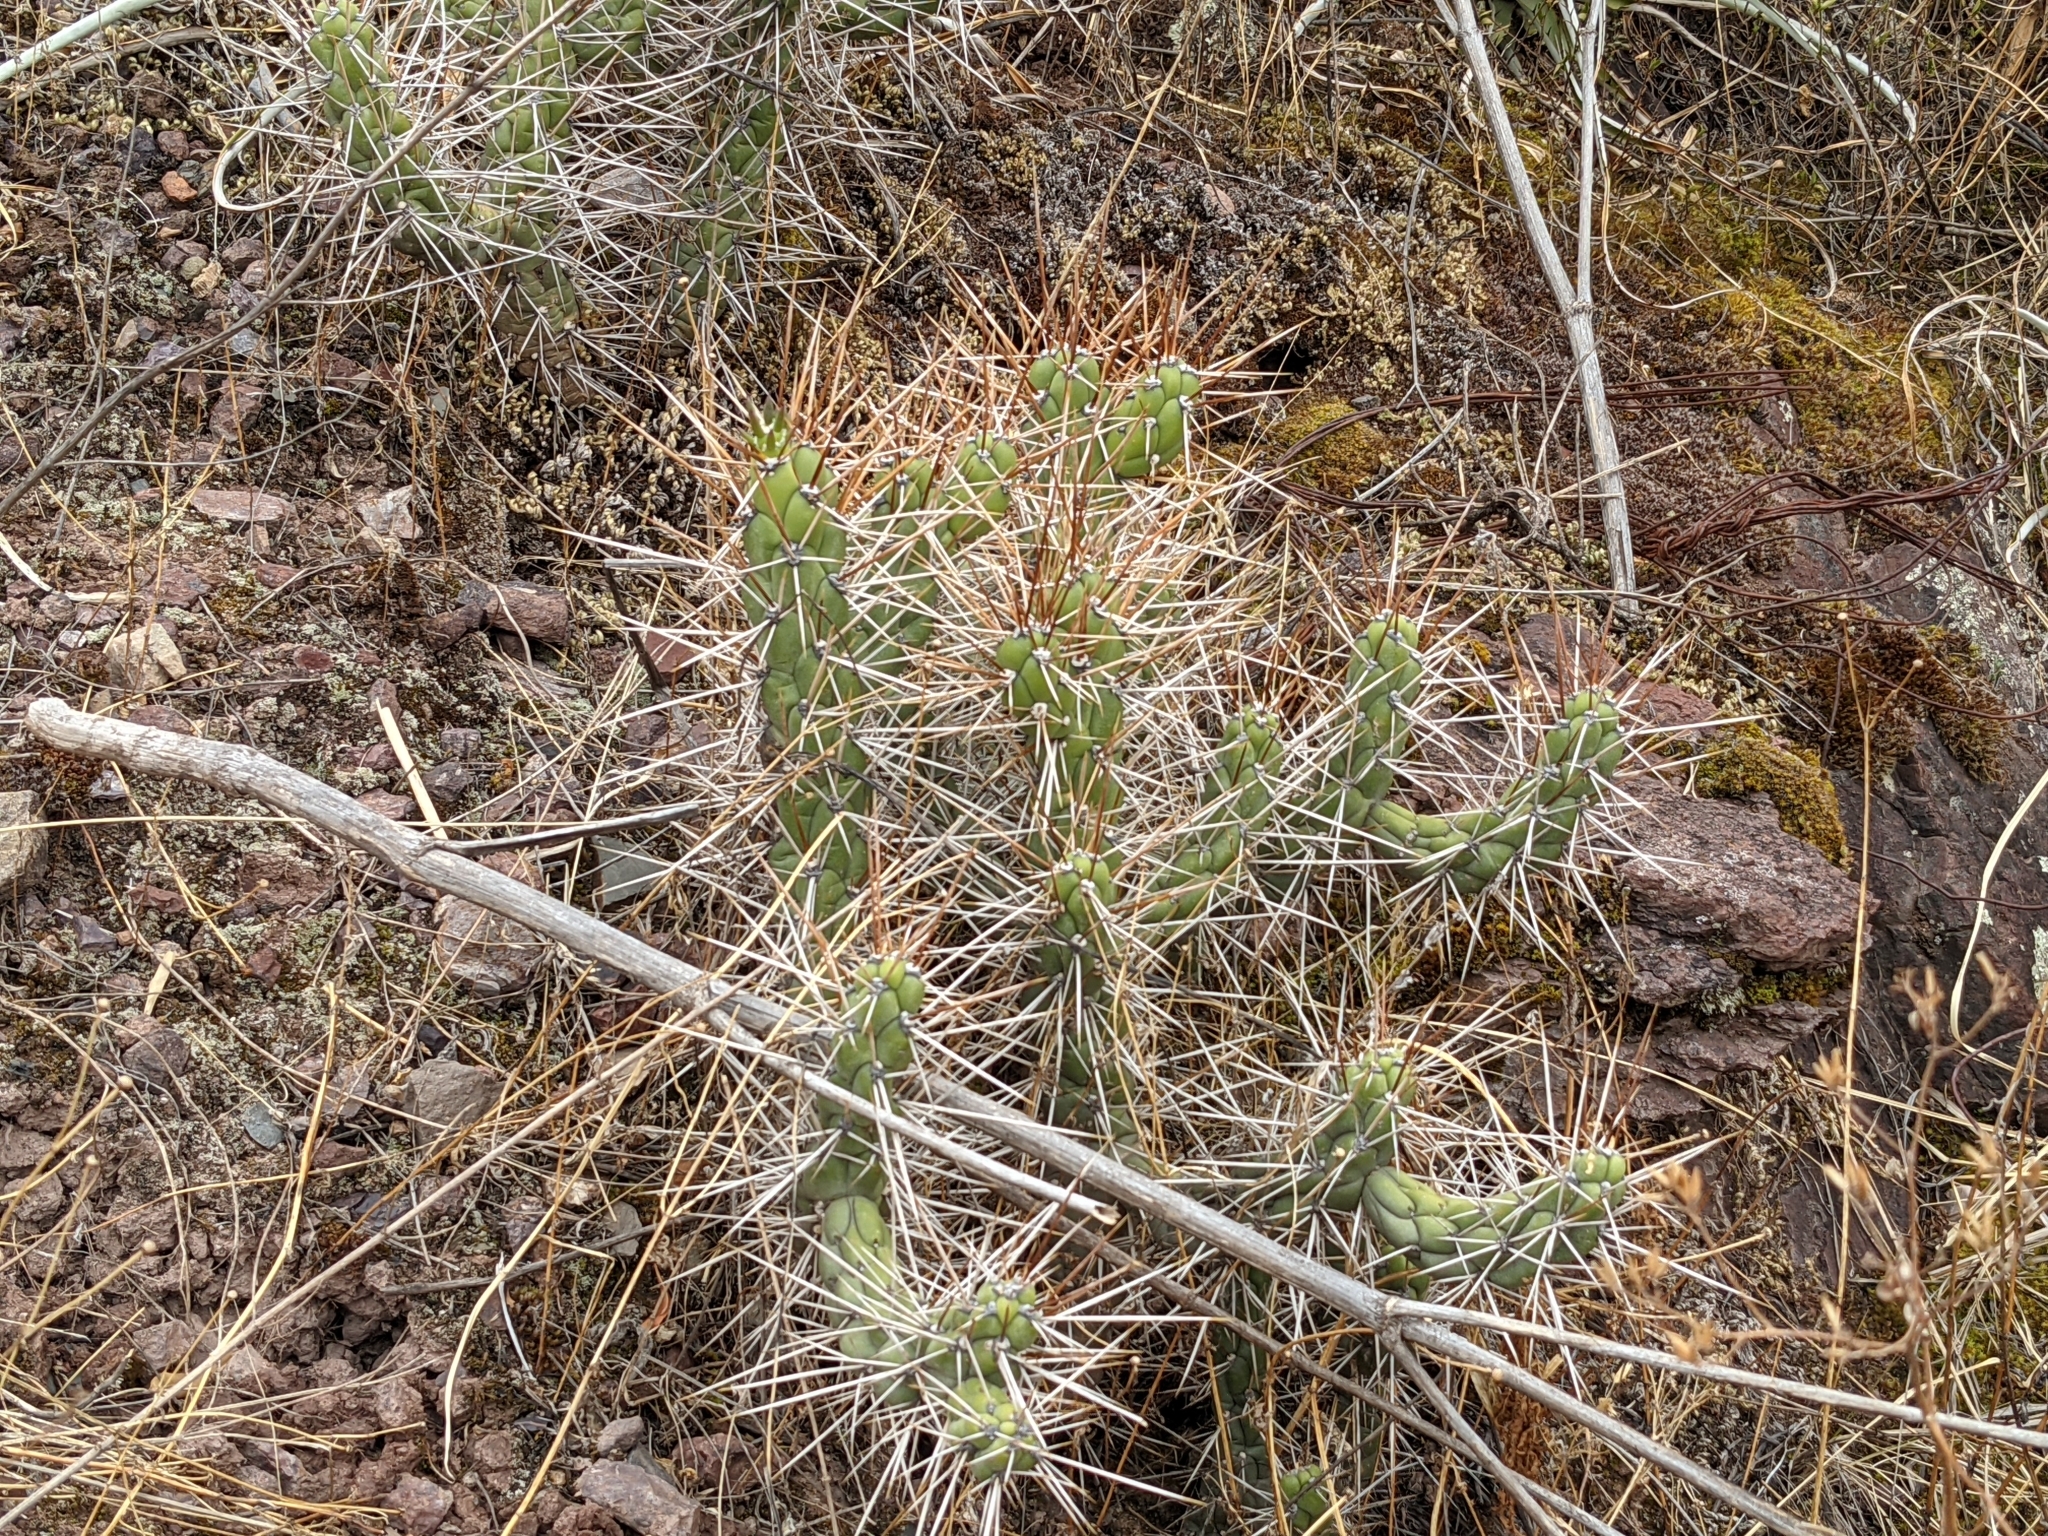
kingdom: Plantae
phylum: Tracheophyta
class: Magnoliopsida
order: Caryophyllales
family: Cactaceae
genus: Austrocylindropuntia
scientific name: Austrocylindropuntia subulata
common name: Eve's needle cactus
